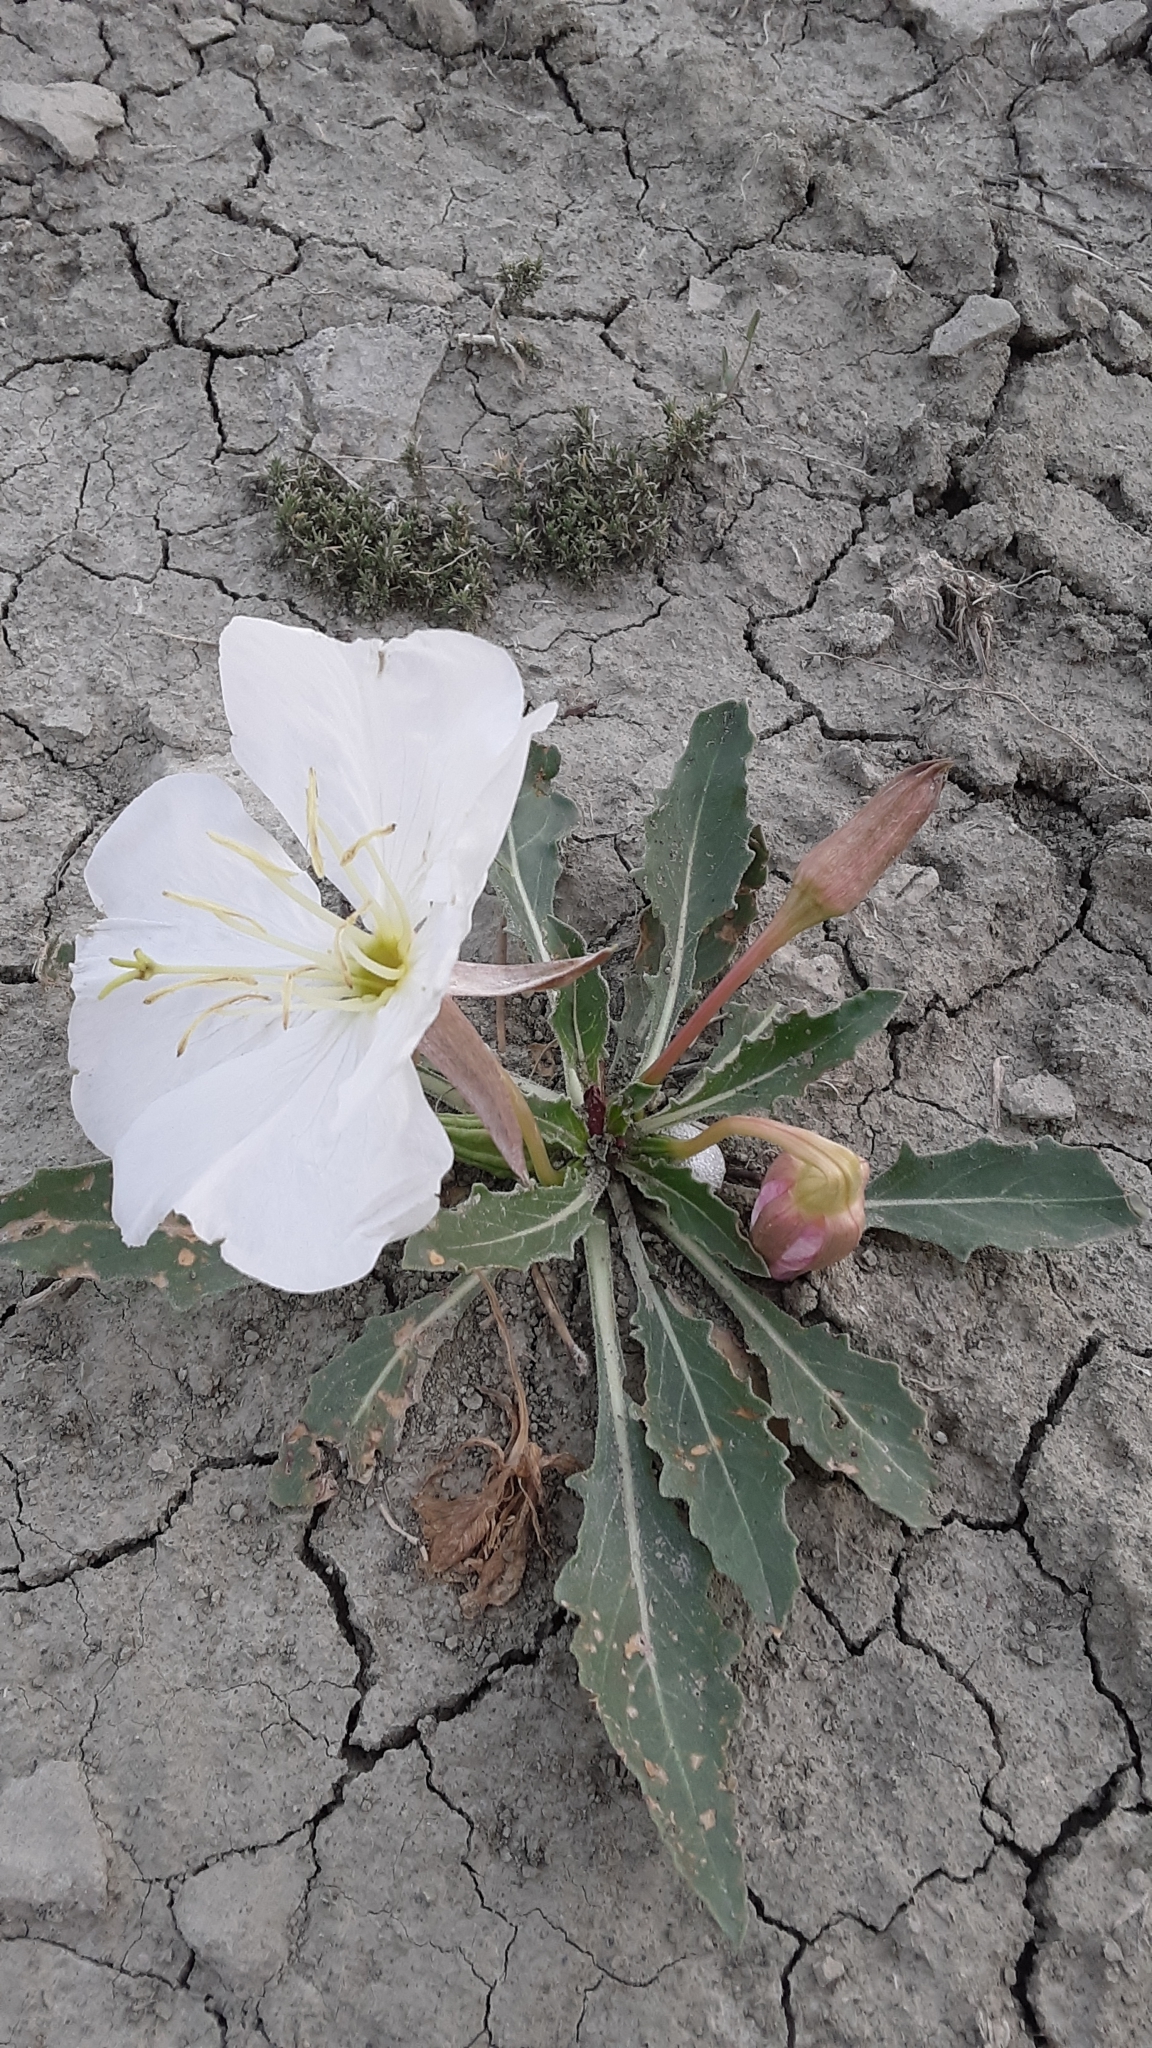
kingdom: Plantae
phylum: Tracheophyta
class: Magnoliopsida
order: Myrtales
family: Onagraceae
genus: Oenothera
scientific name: Oenothera cespitosa
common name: Tufted evening-primrose
